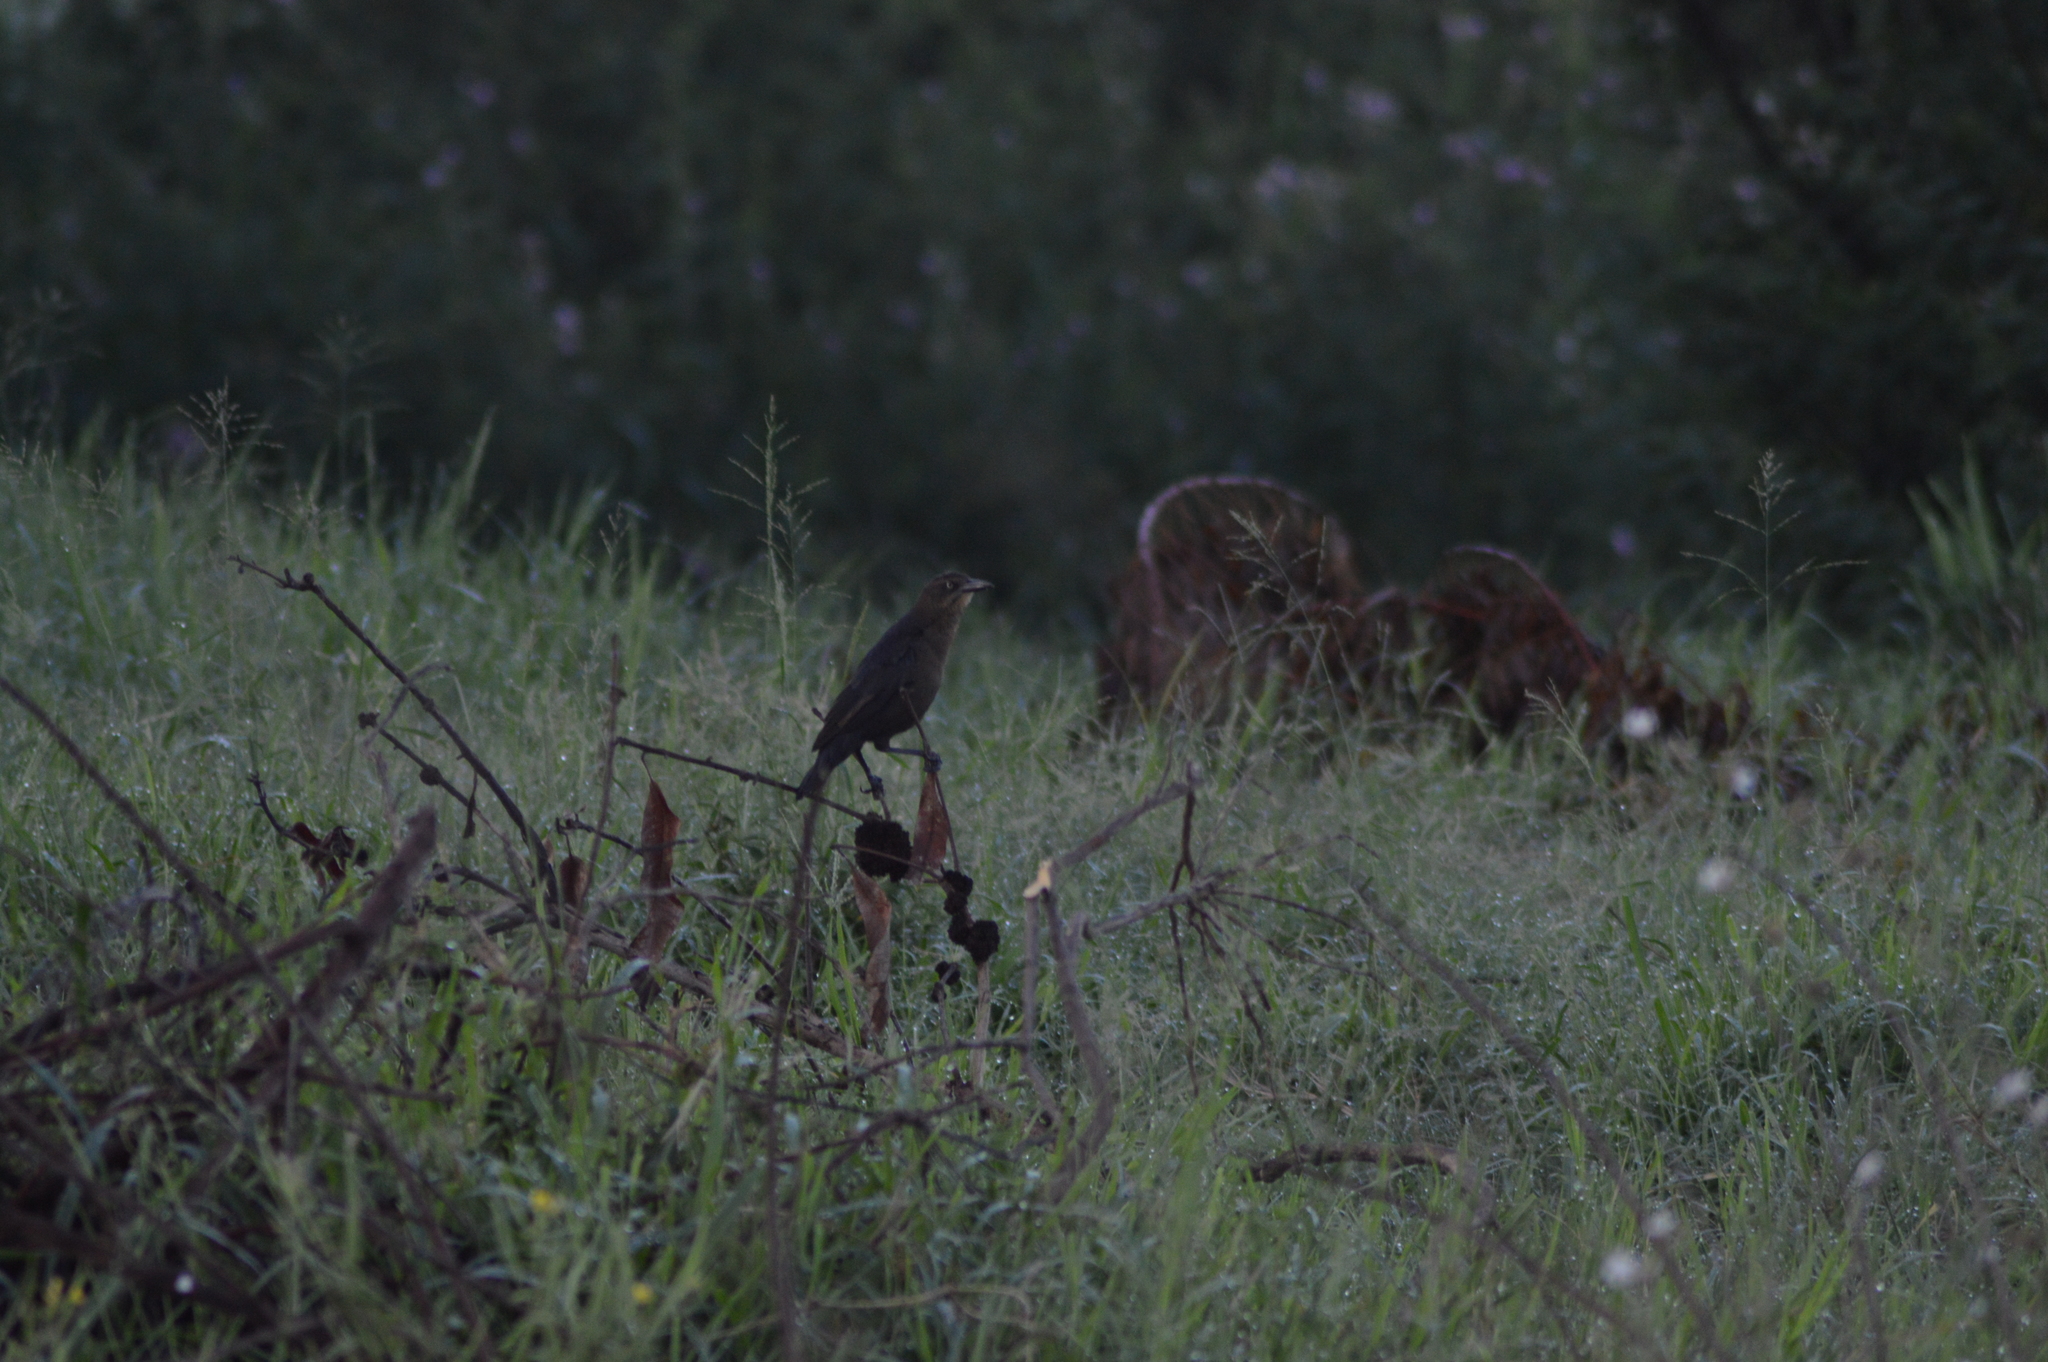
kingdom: Animalia
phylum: Chordata
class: Aves
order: Passeriformes
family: Icteridae
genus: Quiscalus
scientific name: Quiscalus mexicanus
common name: Great-tailed grackle
